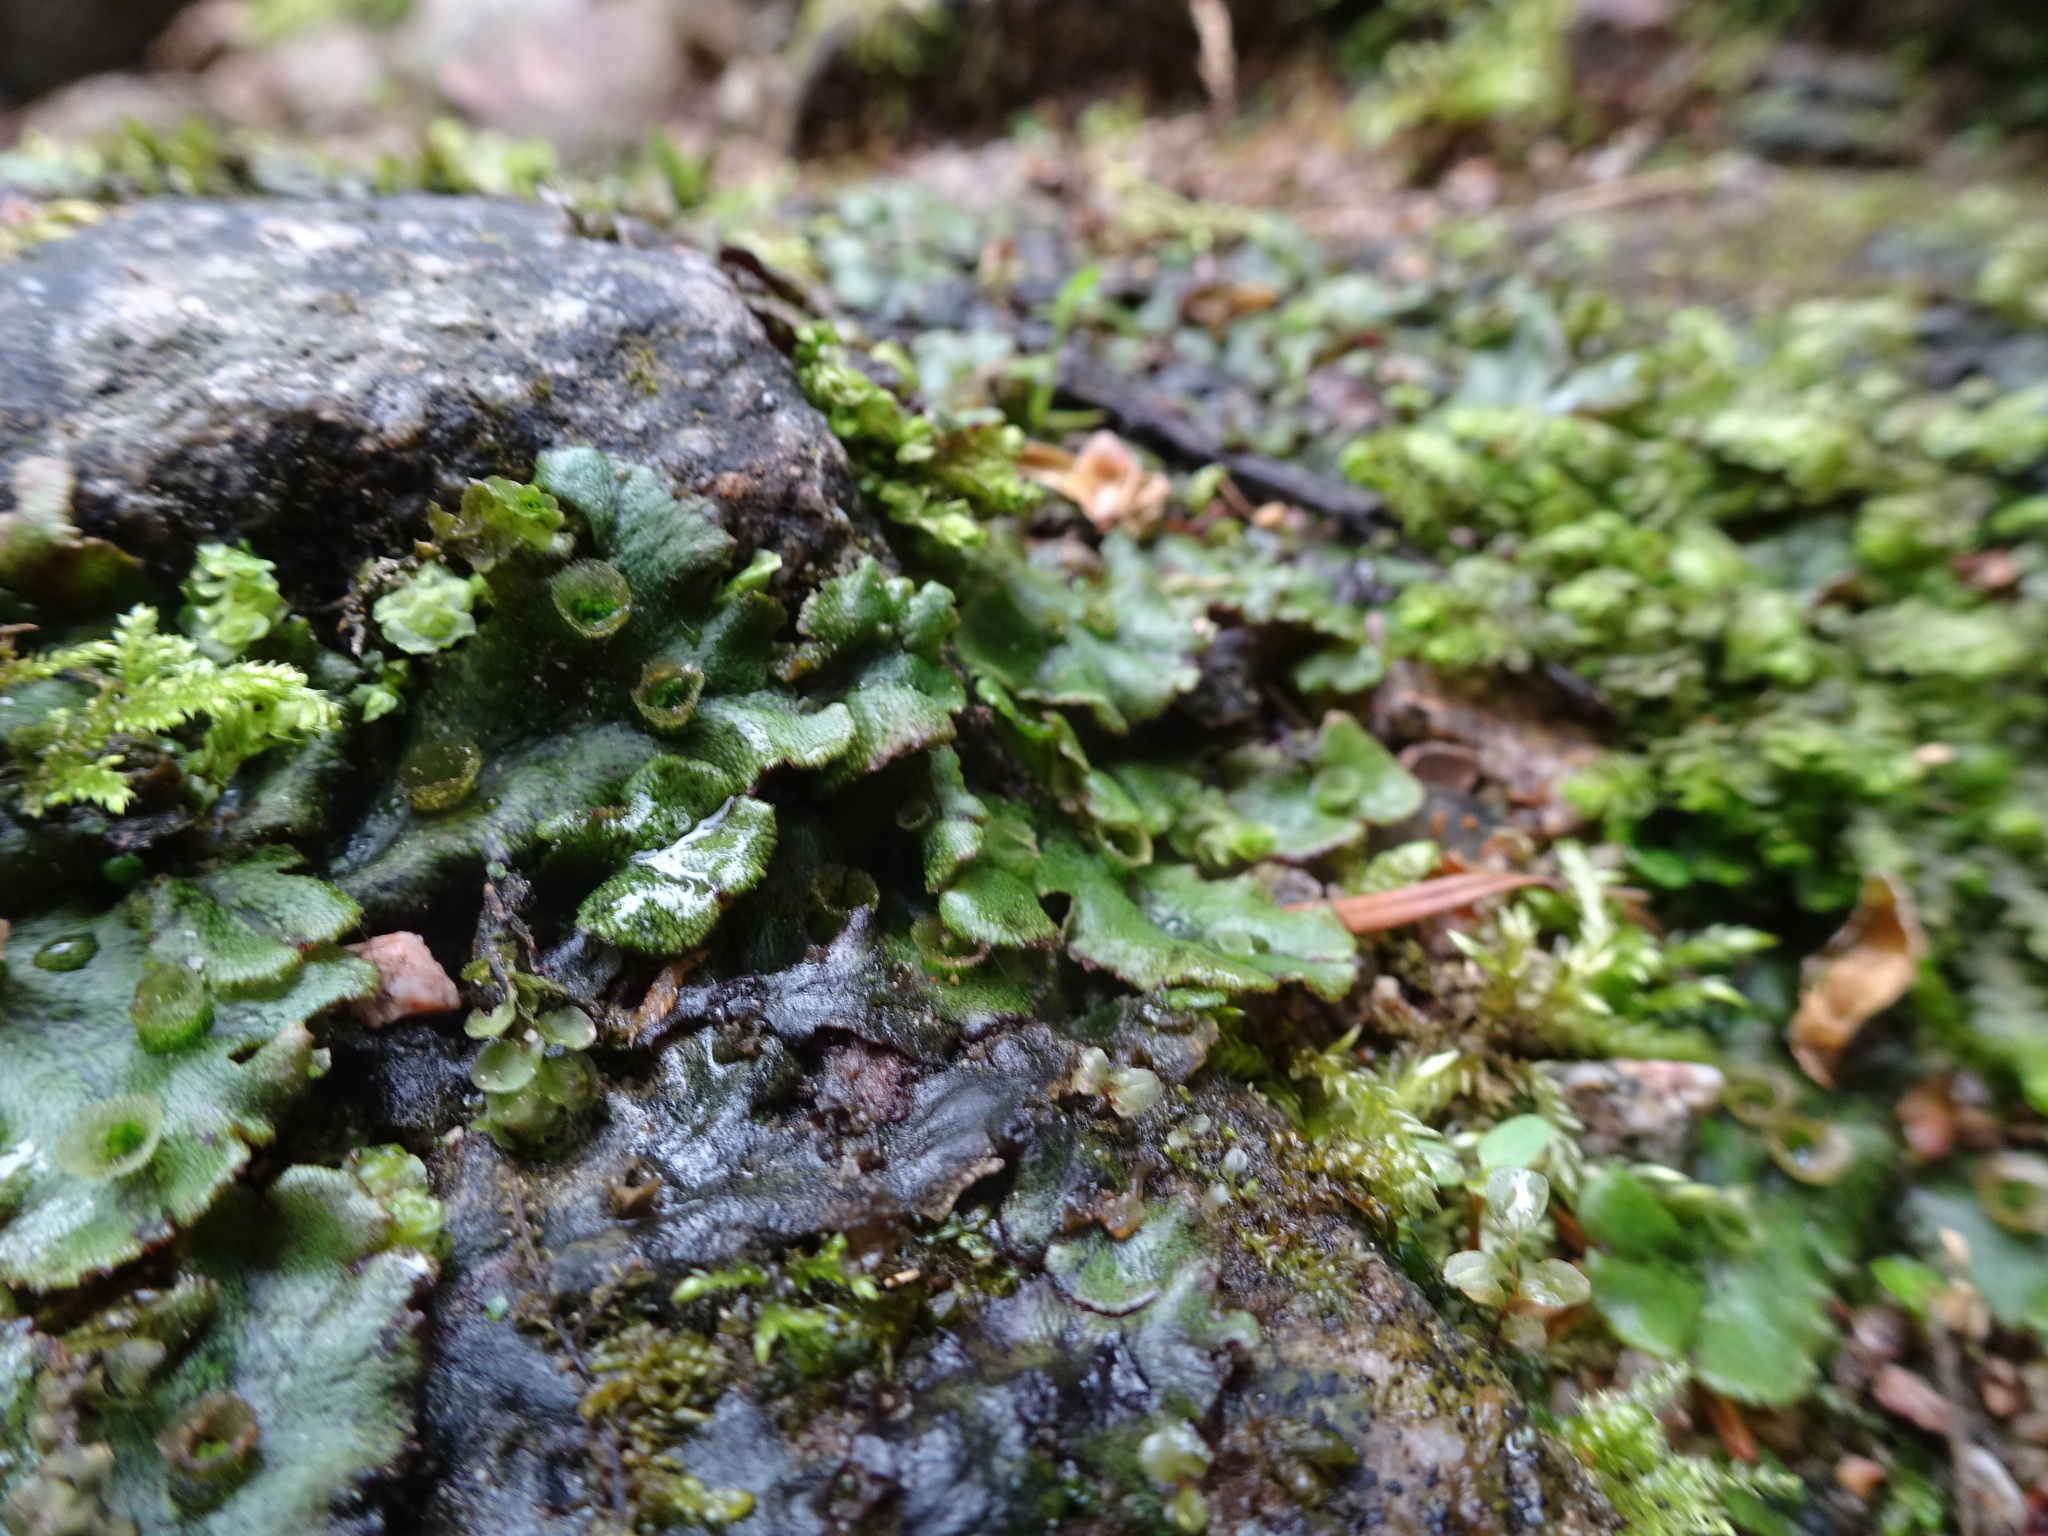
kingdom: Plantae
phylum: Marchantiophyta
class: Marchantiopsida
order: Marchantiales
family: Marchantiaceae
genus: Marchantia
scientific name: Marchantia polymorpha
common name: Common liverwort
